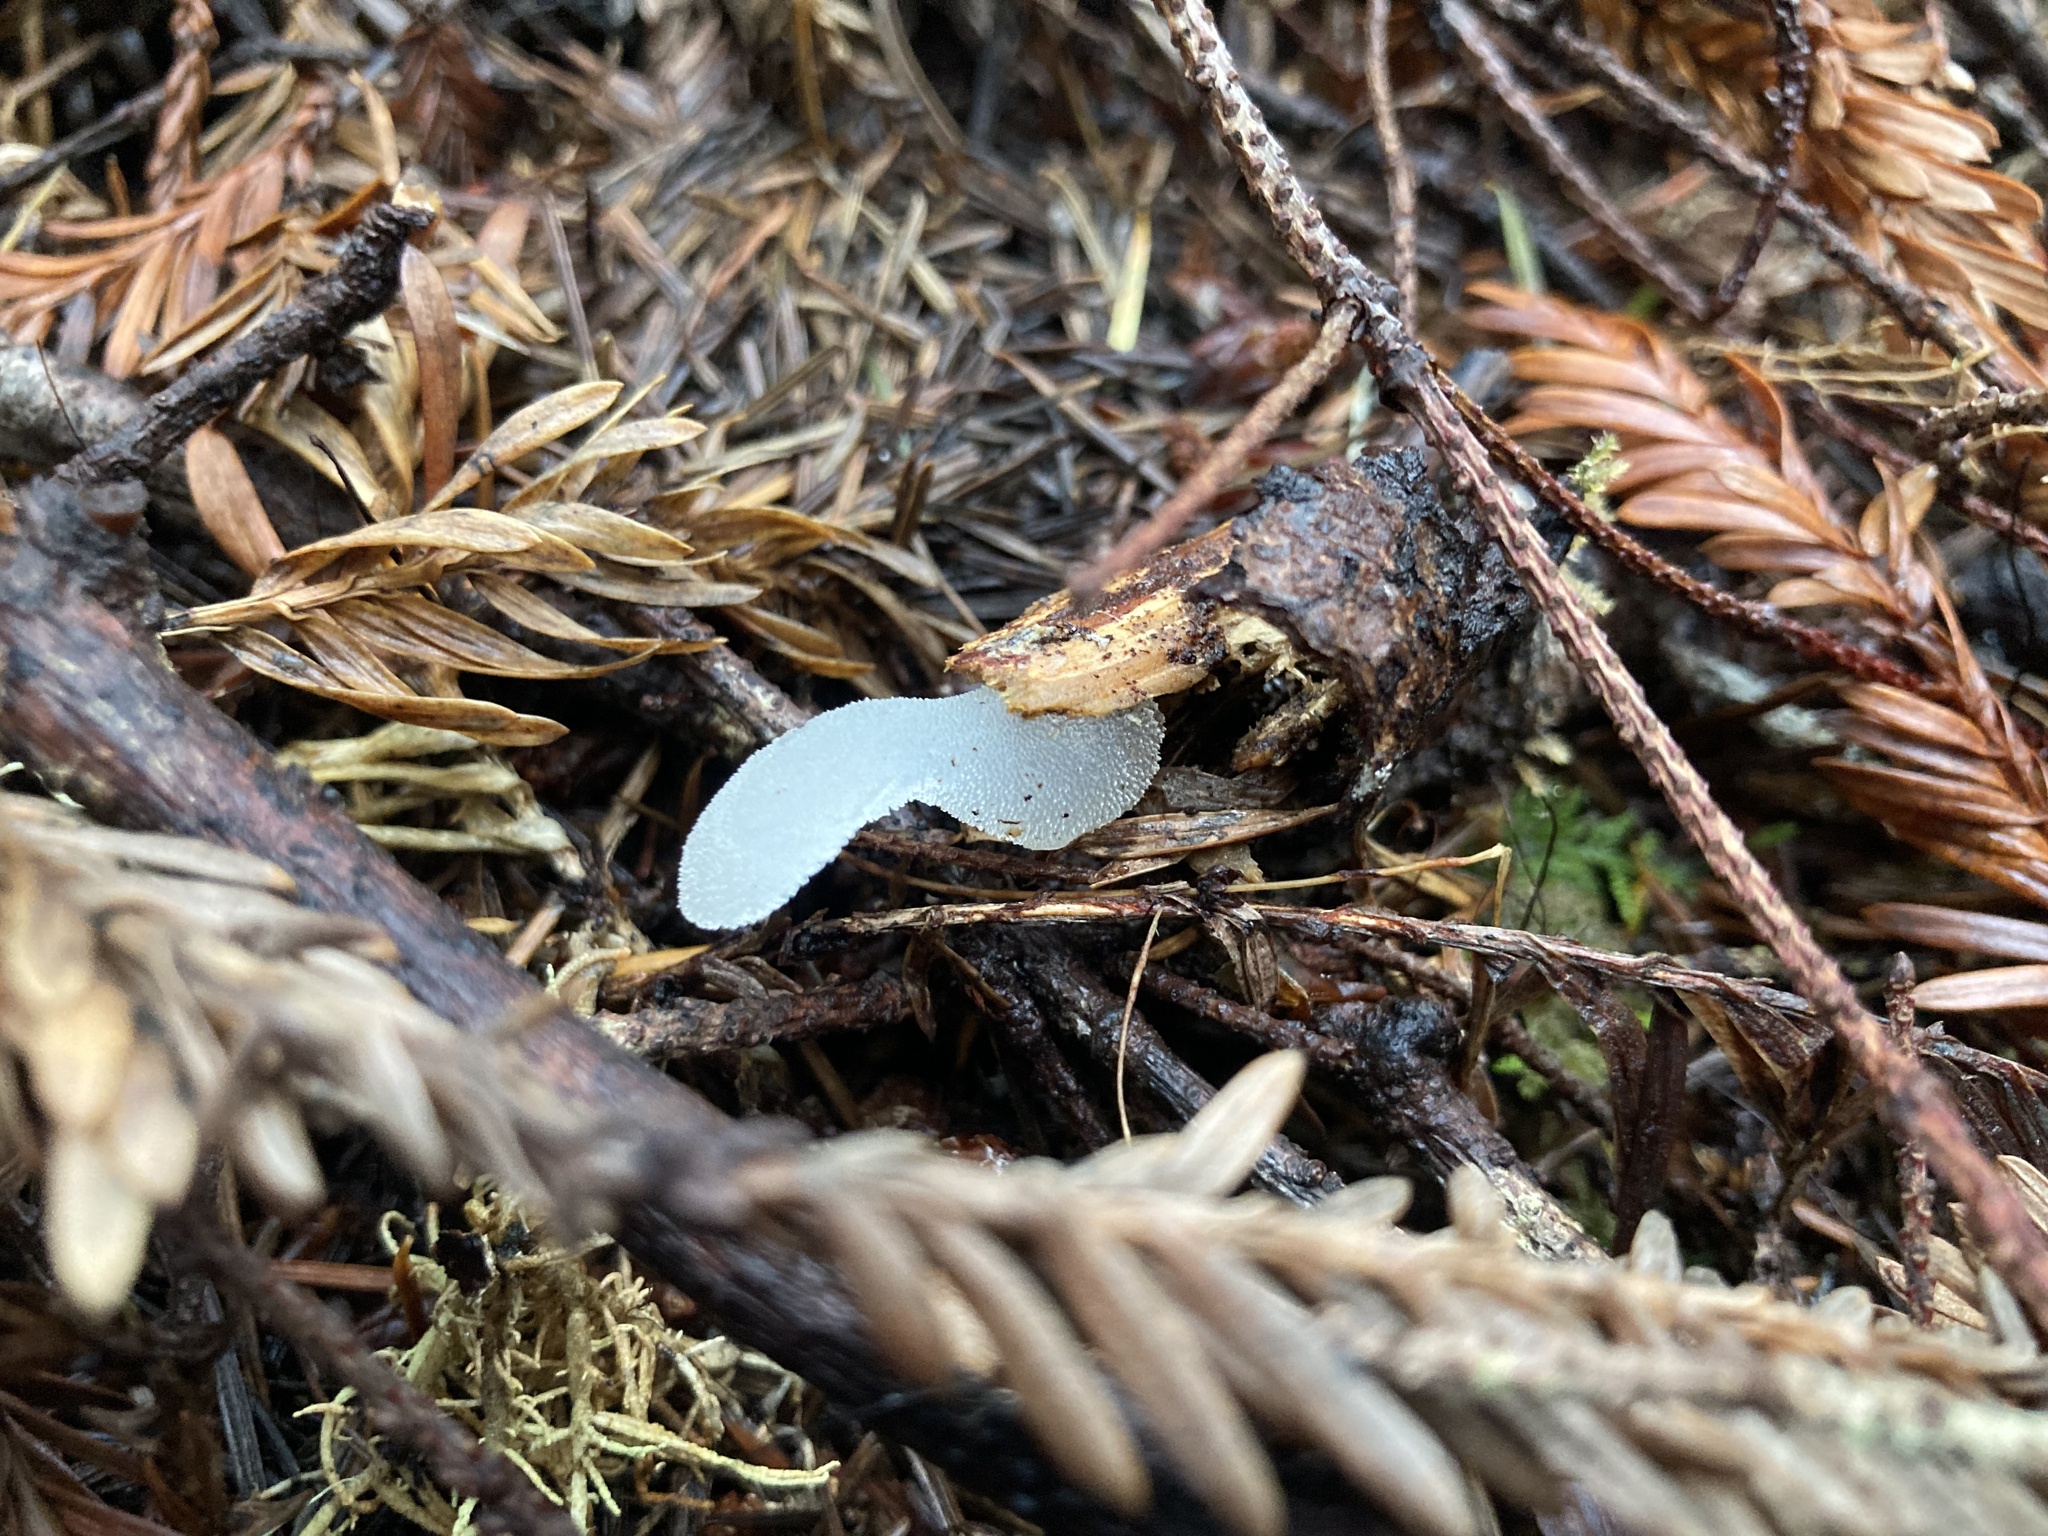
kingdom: Fungi
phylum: Basidiomycota
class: Agaricomycetes
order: Auriculariales
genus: Pseudohydnum
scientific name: Pseudohydnum gelatinosum
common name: Jelly tongue
